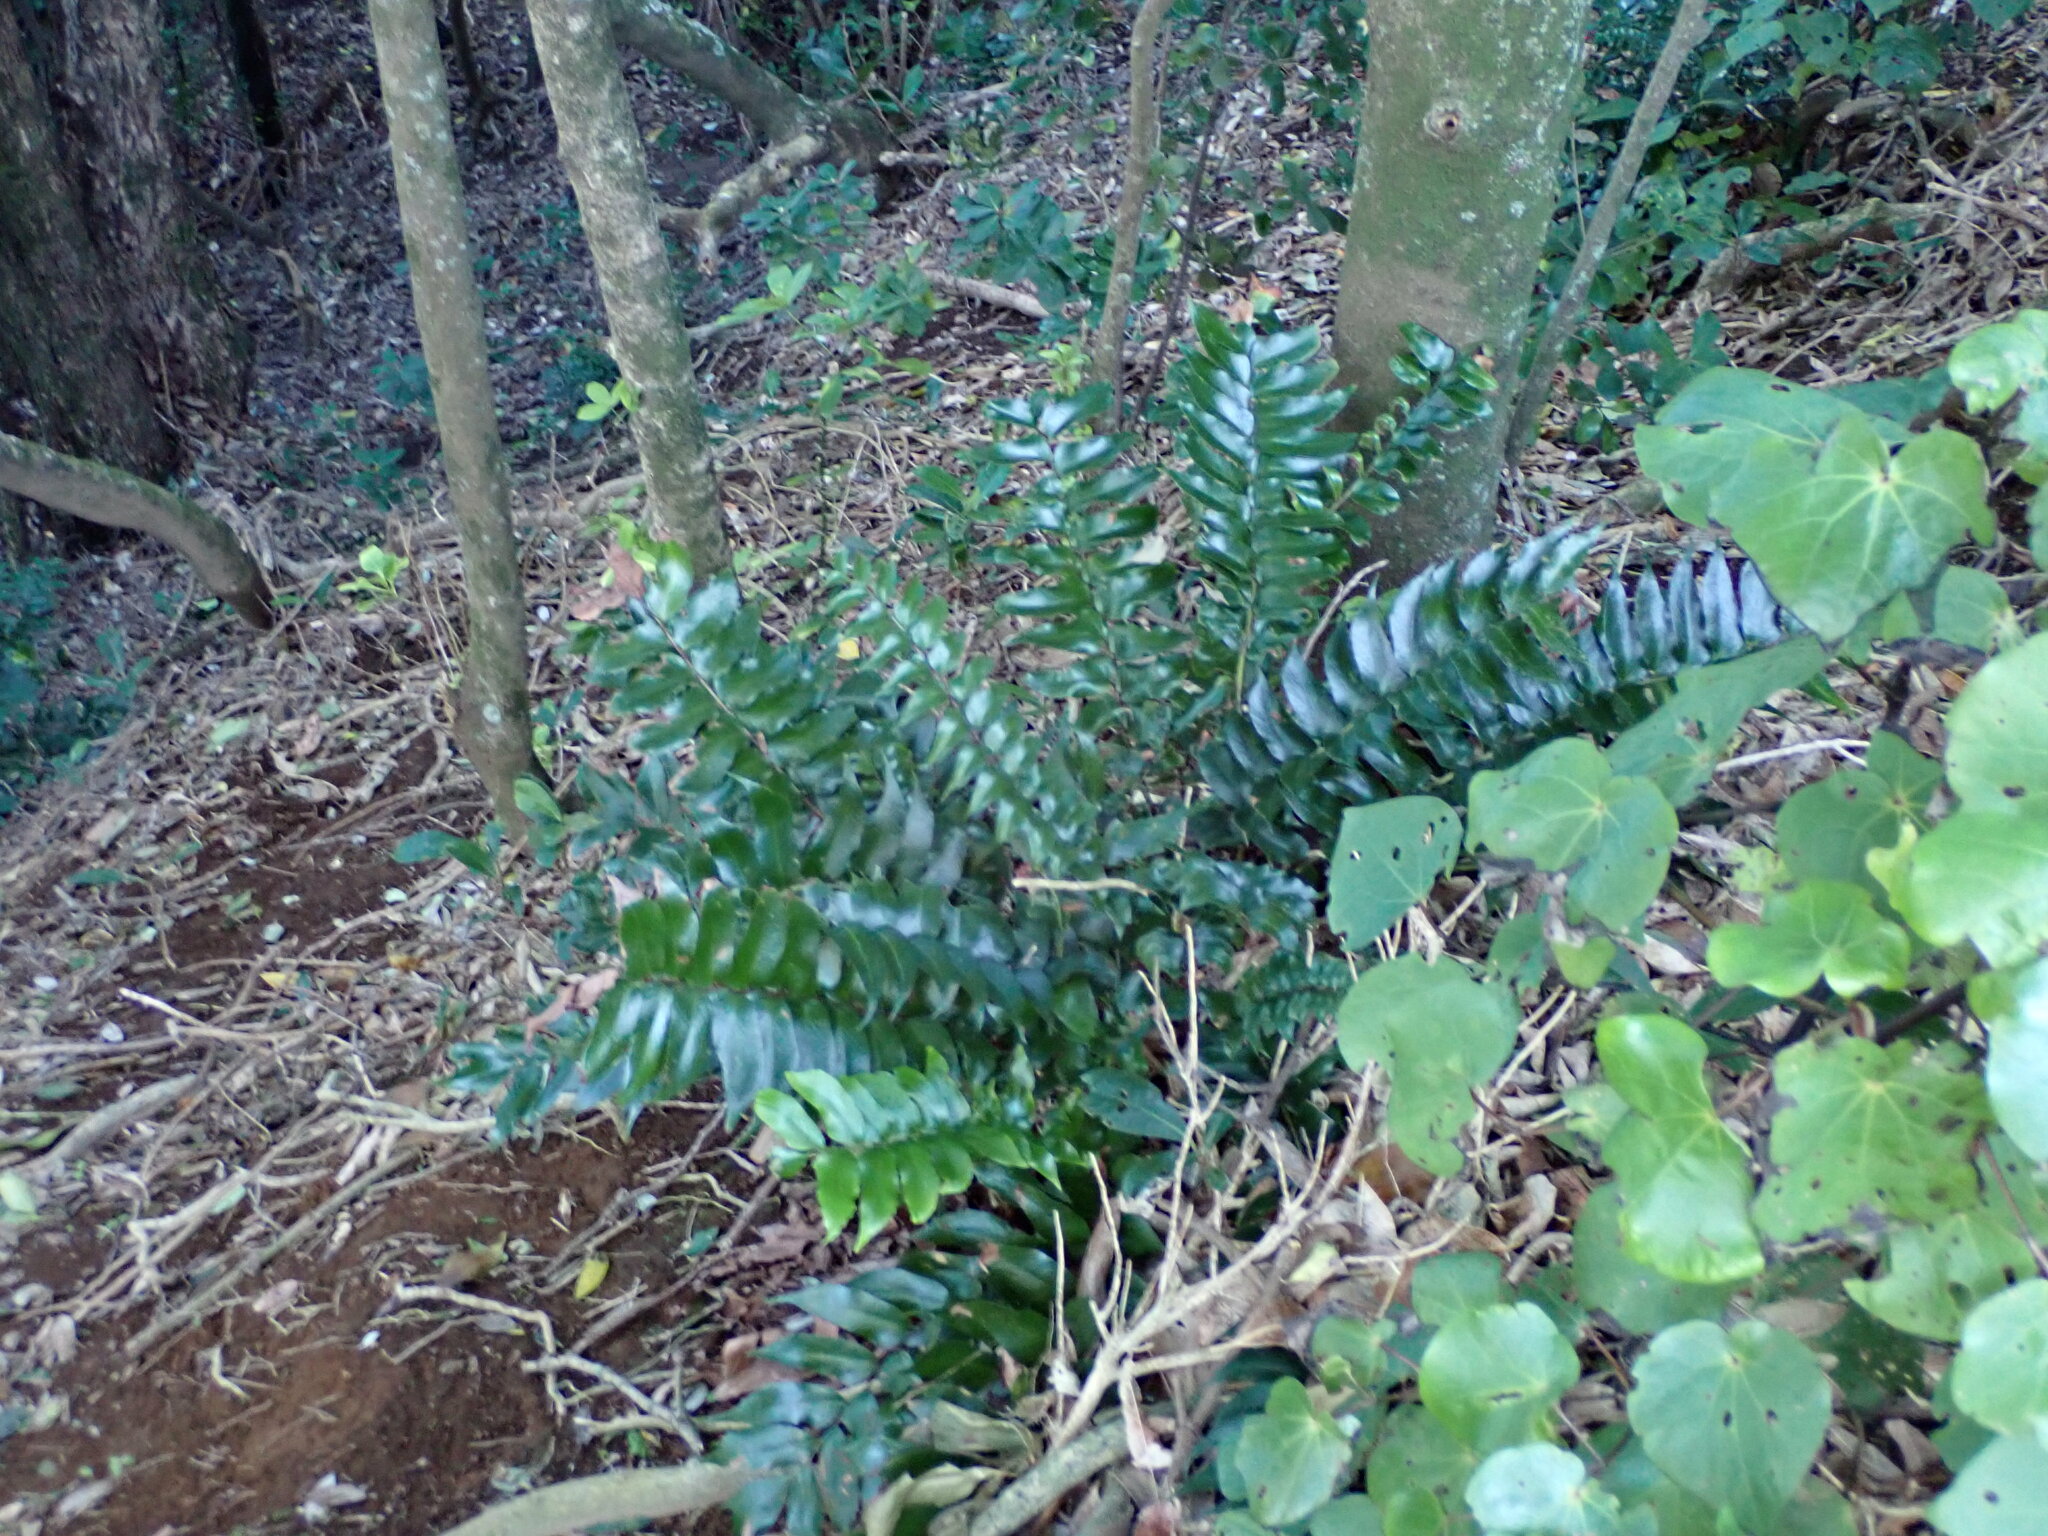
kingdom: Plantae
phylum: Tracheophyta
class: Polypodiopsida
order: Polypodiales
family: Dryopteridaceae
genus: Cyrtomium
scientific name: Cyrtomium falcatum
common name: House holly-fern
